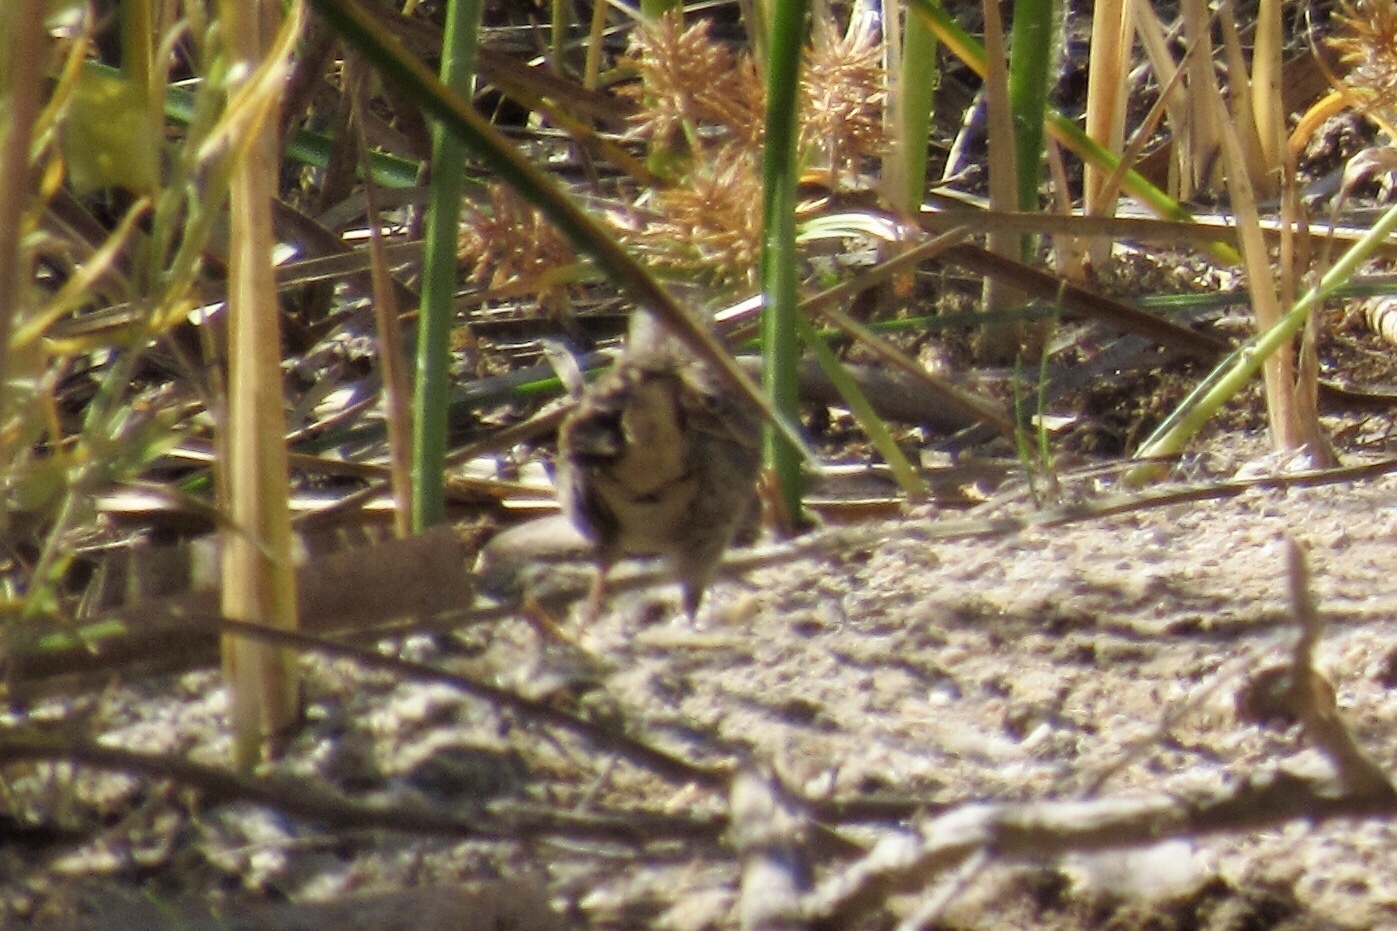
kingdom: Animalia
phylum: Chordata
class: Aves
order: Passeriformes
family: Passerellidae
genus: Melospiza
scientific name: Melospiza melodia
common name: Song sparrow
